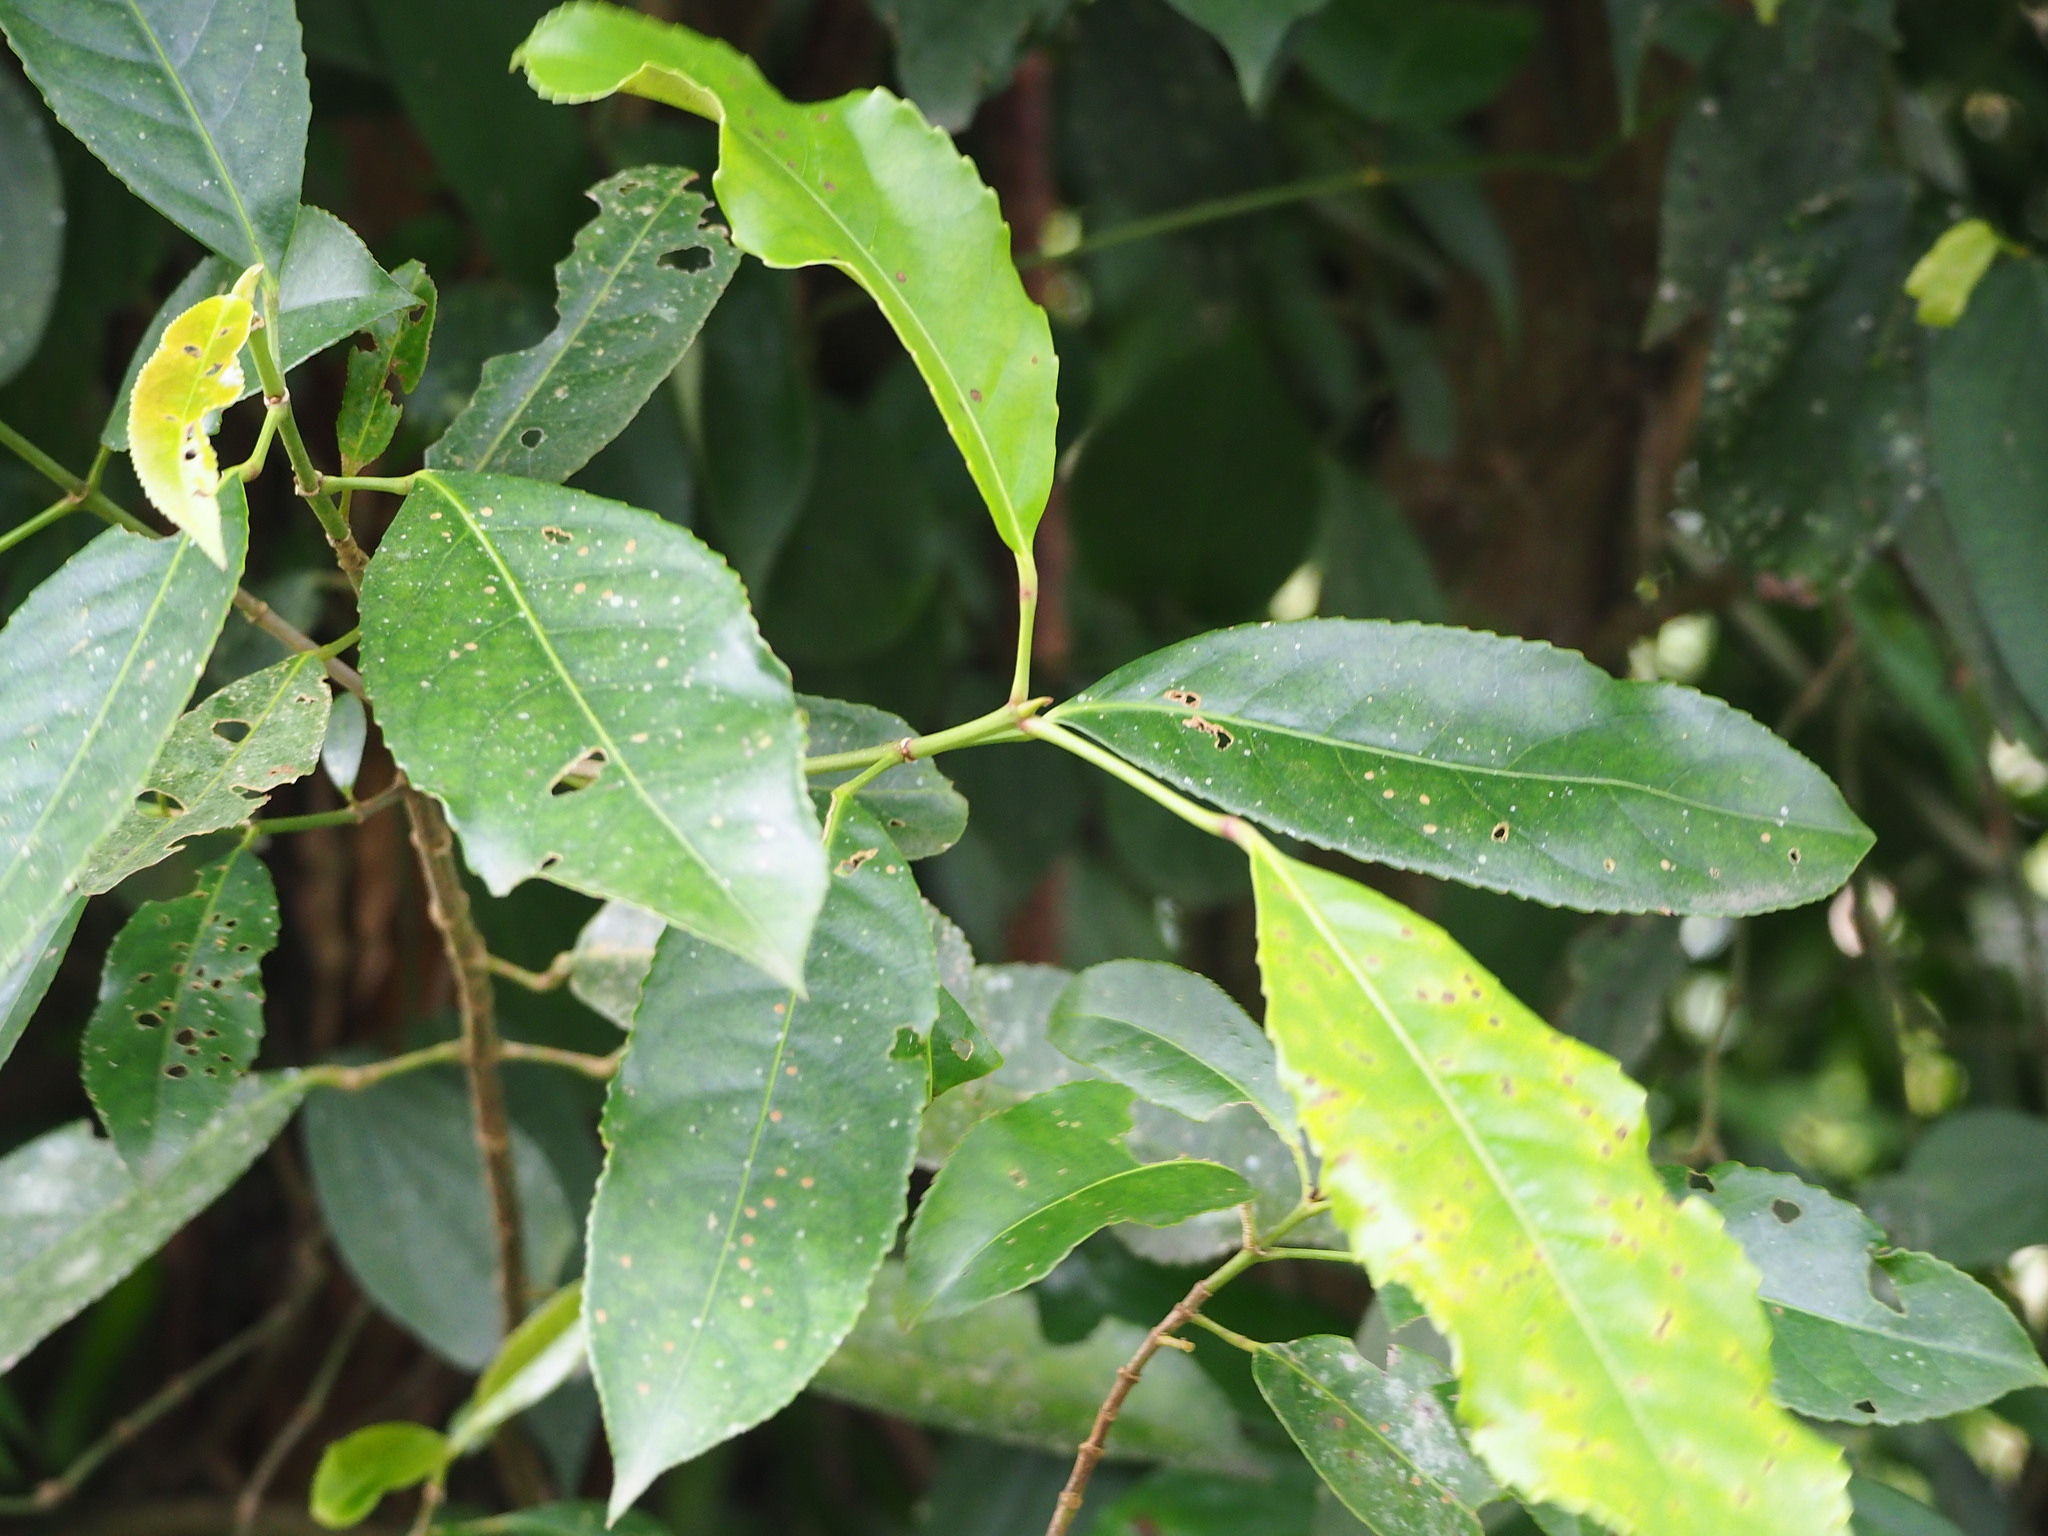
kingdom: Plantae
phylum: Tracheophyta
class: Magnoliopsida
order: Crossosomatales
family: Staphyleaceae
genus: Turpinia
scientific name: Turpinia formosana
